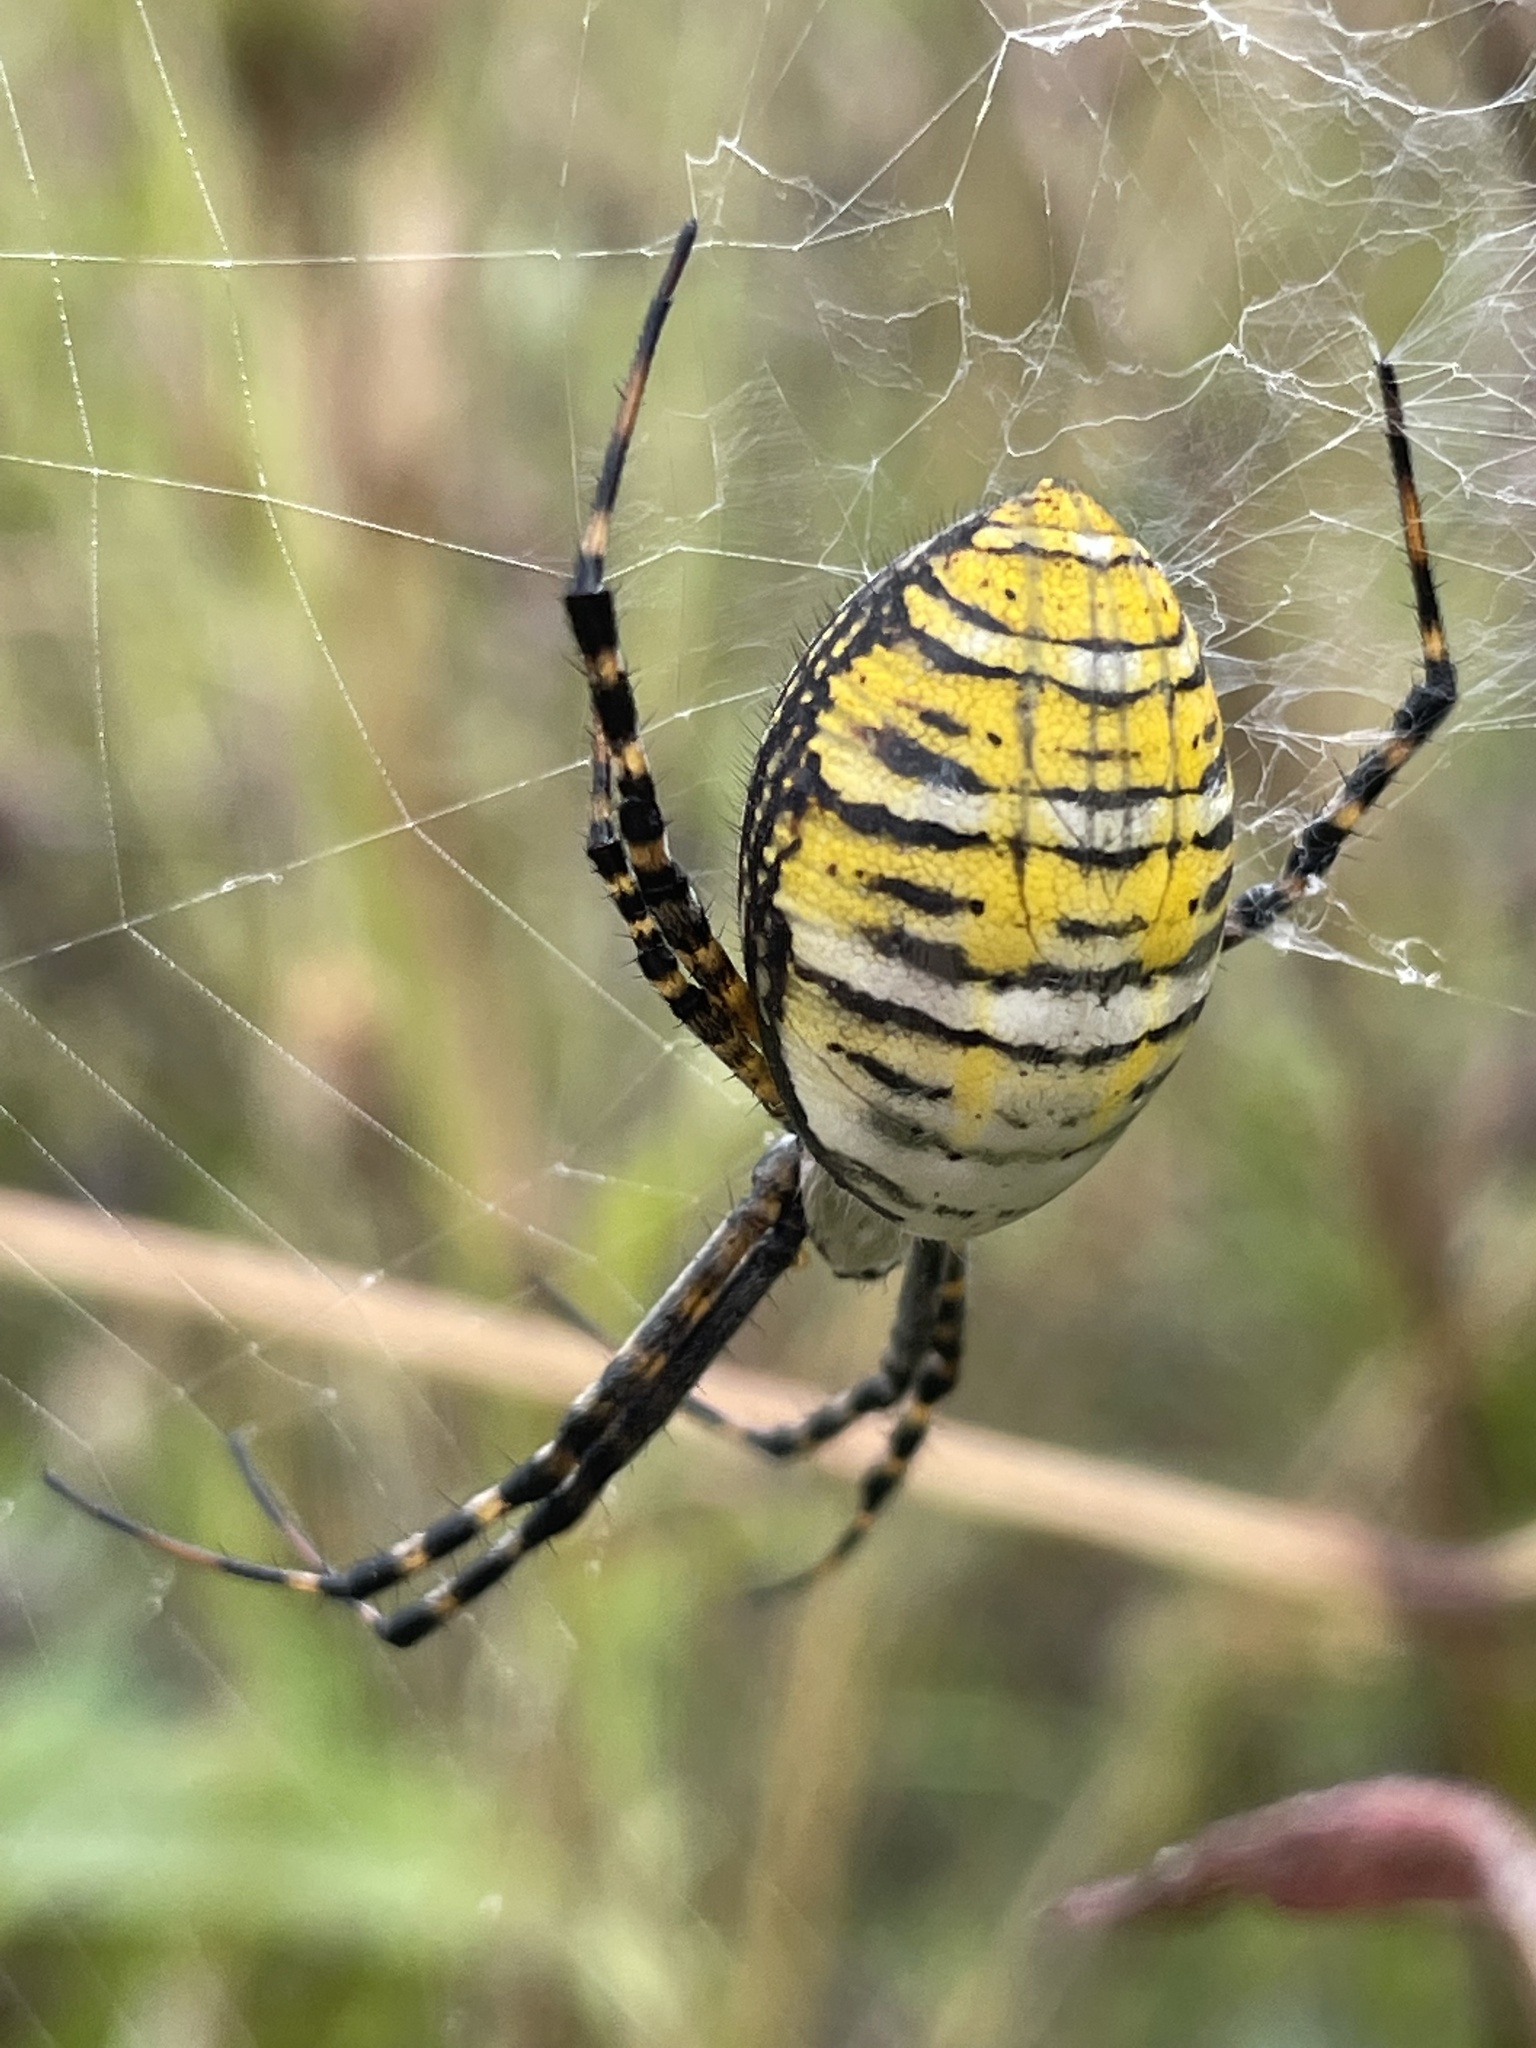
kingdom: Animalia
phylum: Arthropoda
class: Arachnida
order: Araneae
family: Araneidae
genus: Argiope
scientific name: Argiope trifasciata
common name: Banded garden spider
